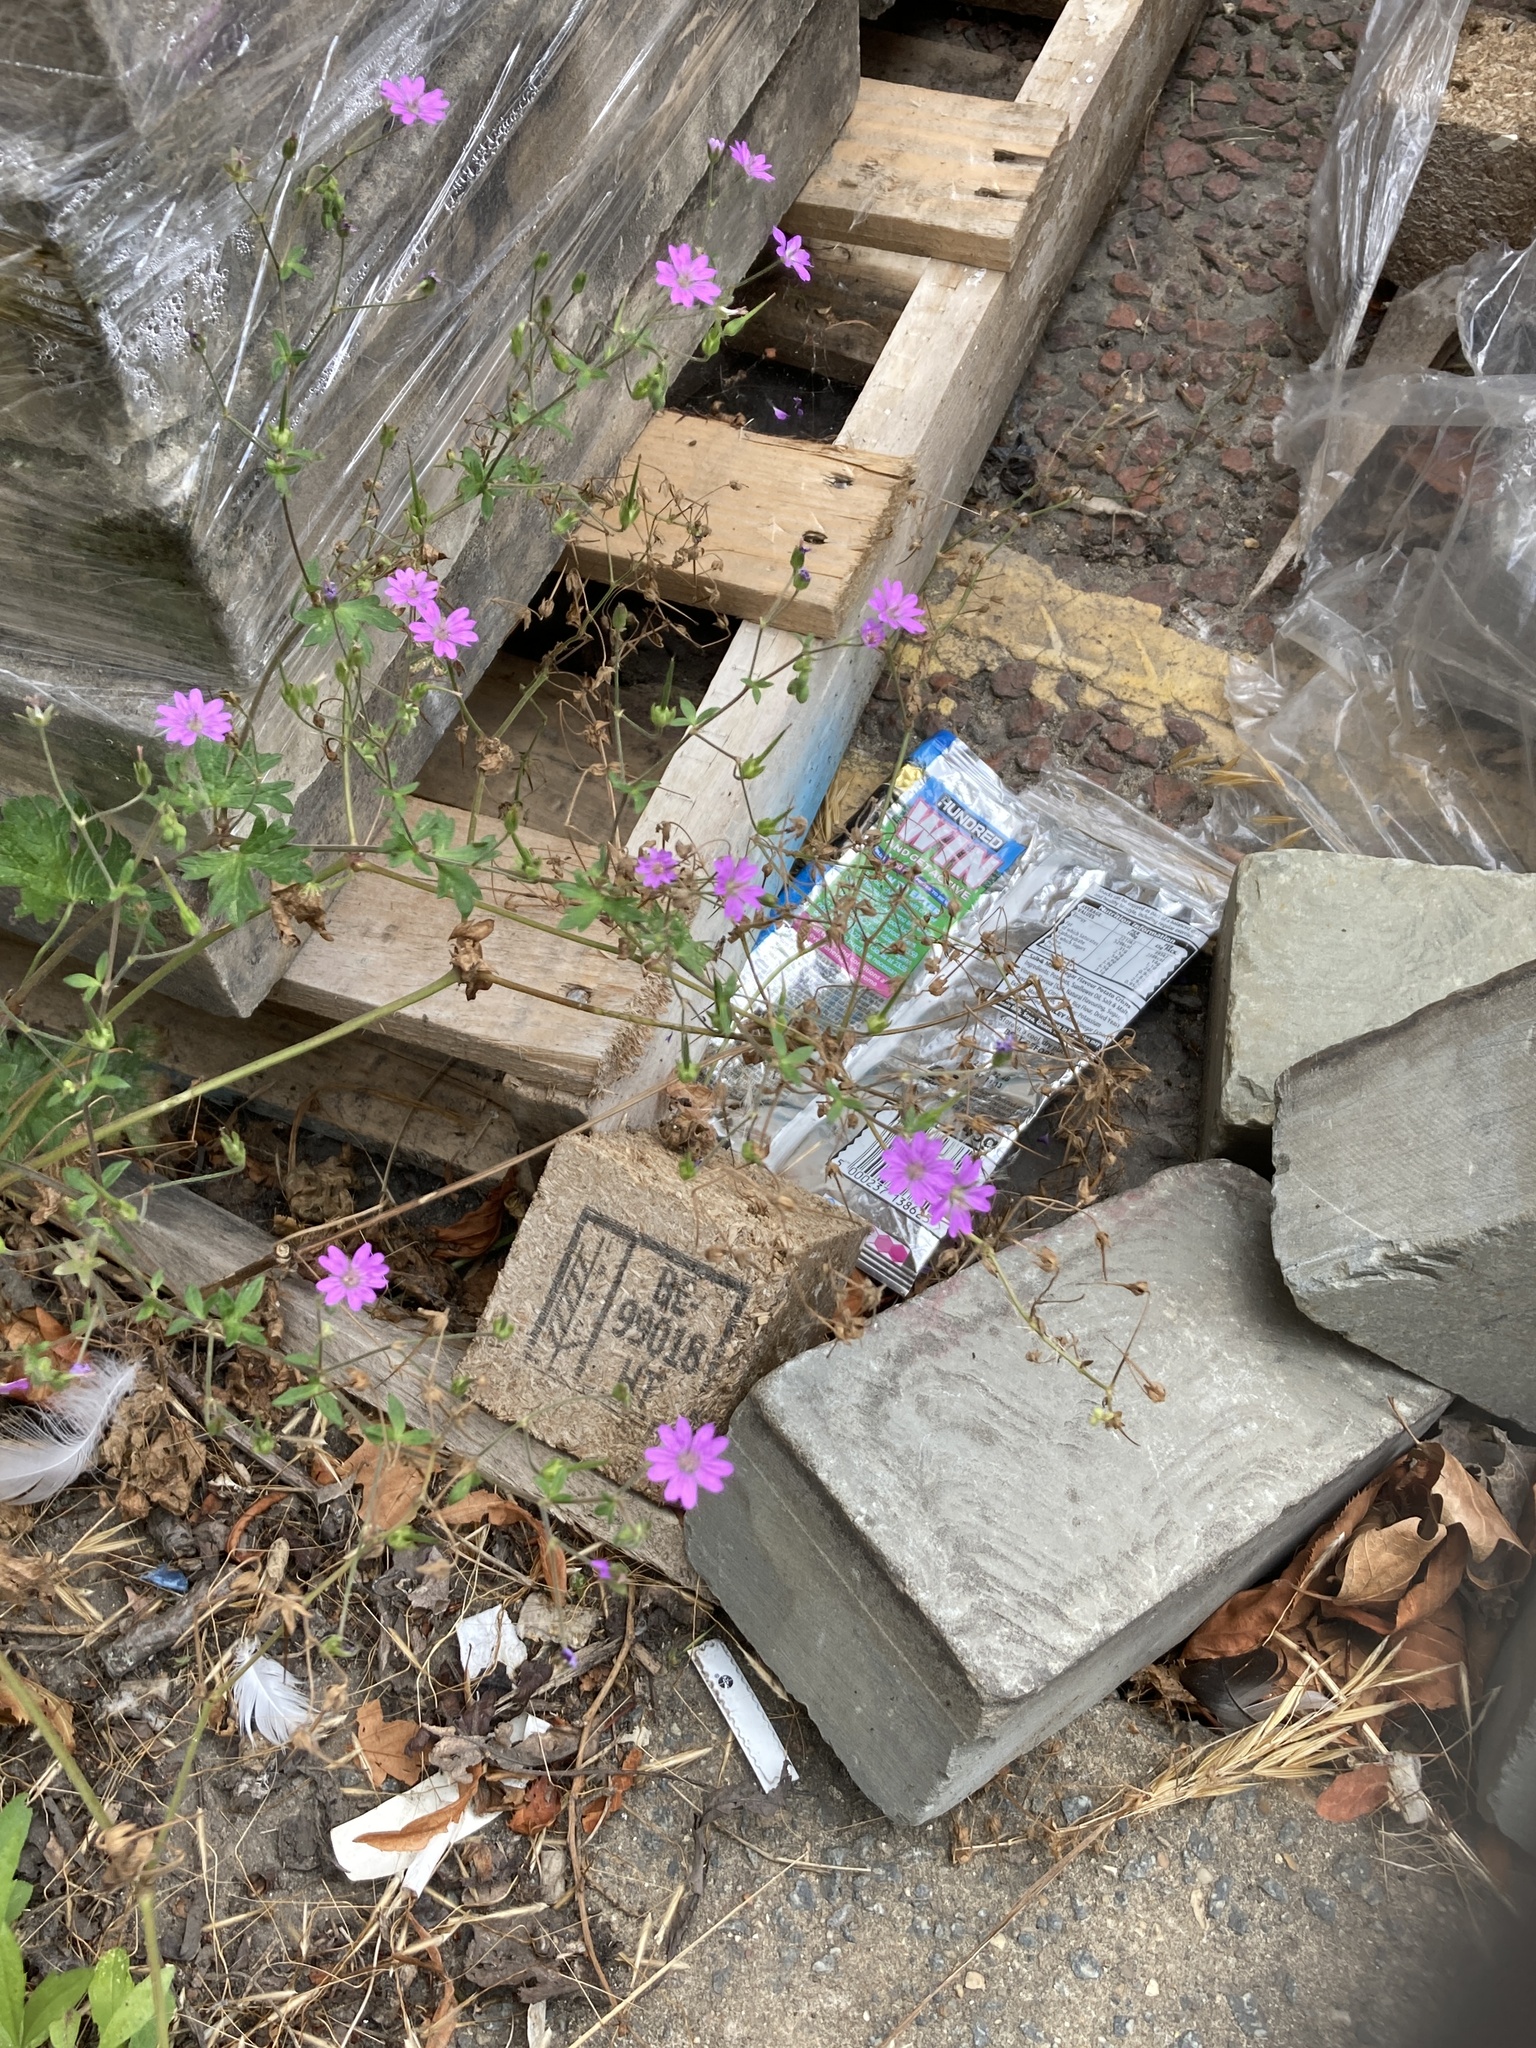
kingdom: Plantae
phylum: Tracheophyta
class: Magnoliopsida
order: Geraniales
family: Geraniaceae
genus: Geranium
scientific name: Geranium pyrenaicum
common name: Hedgerow crane's-bill
